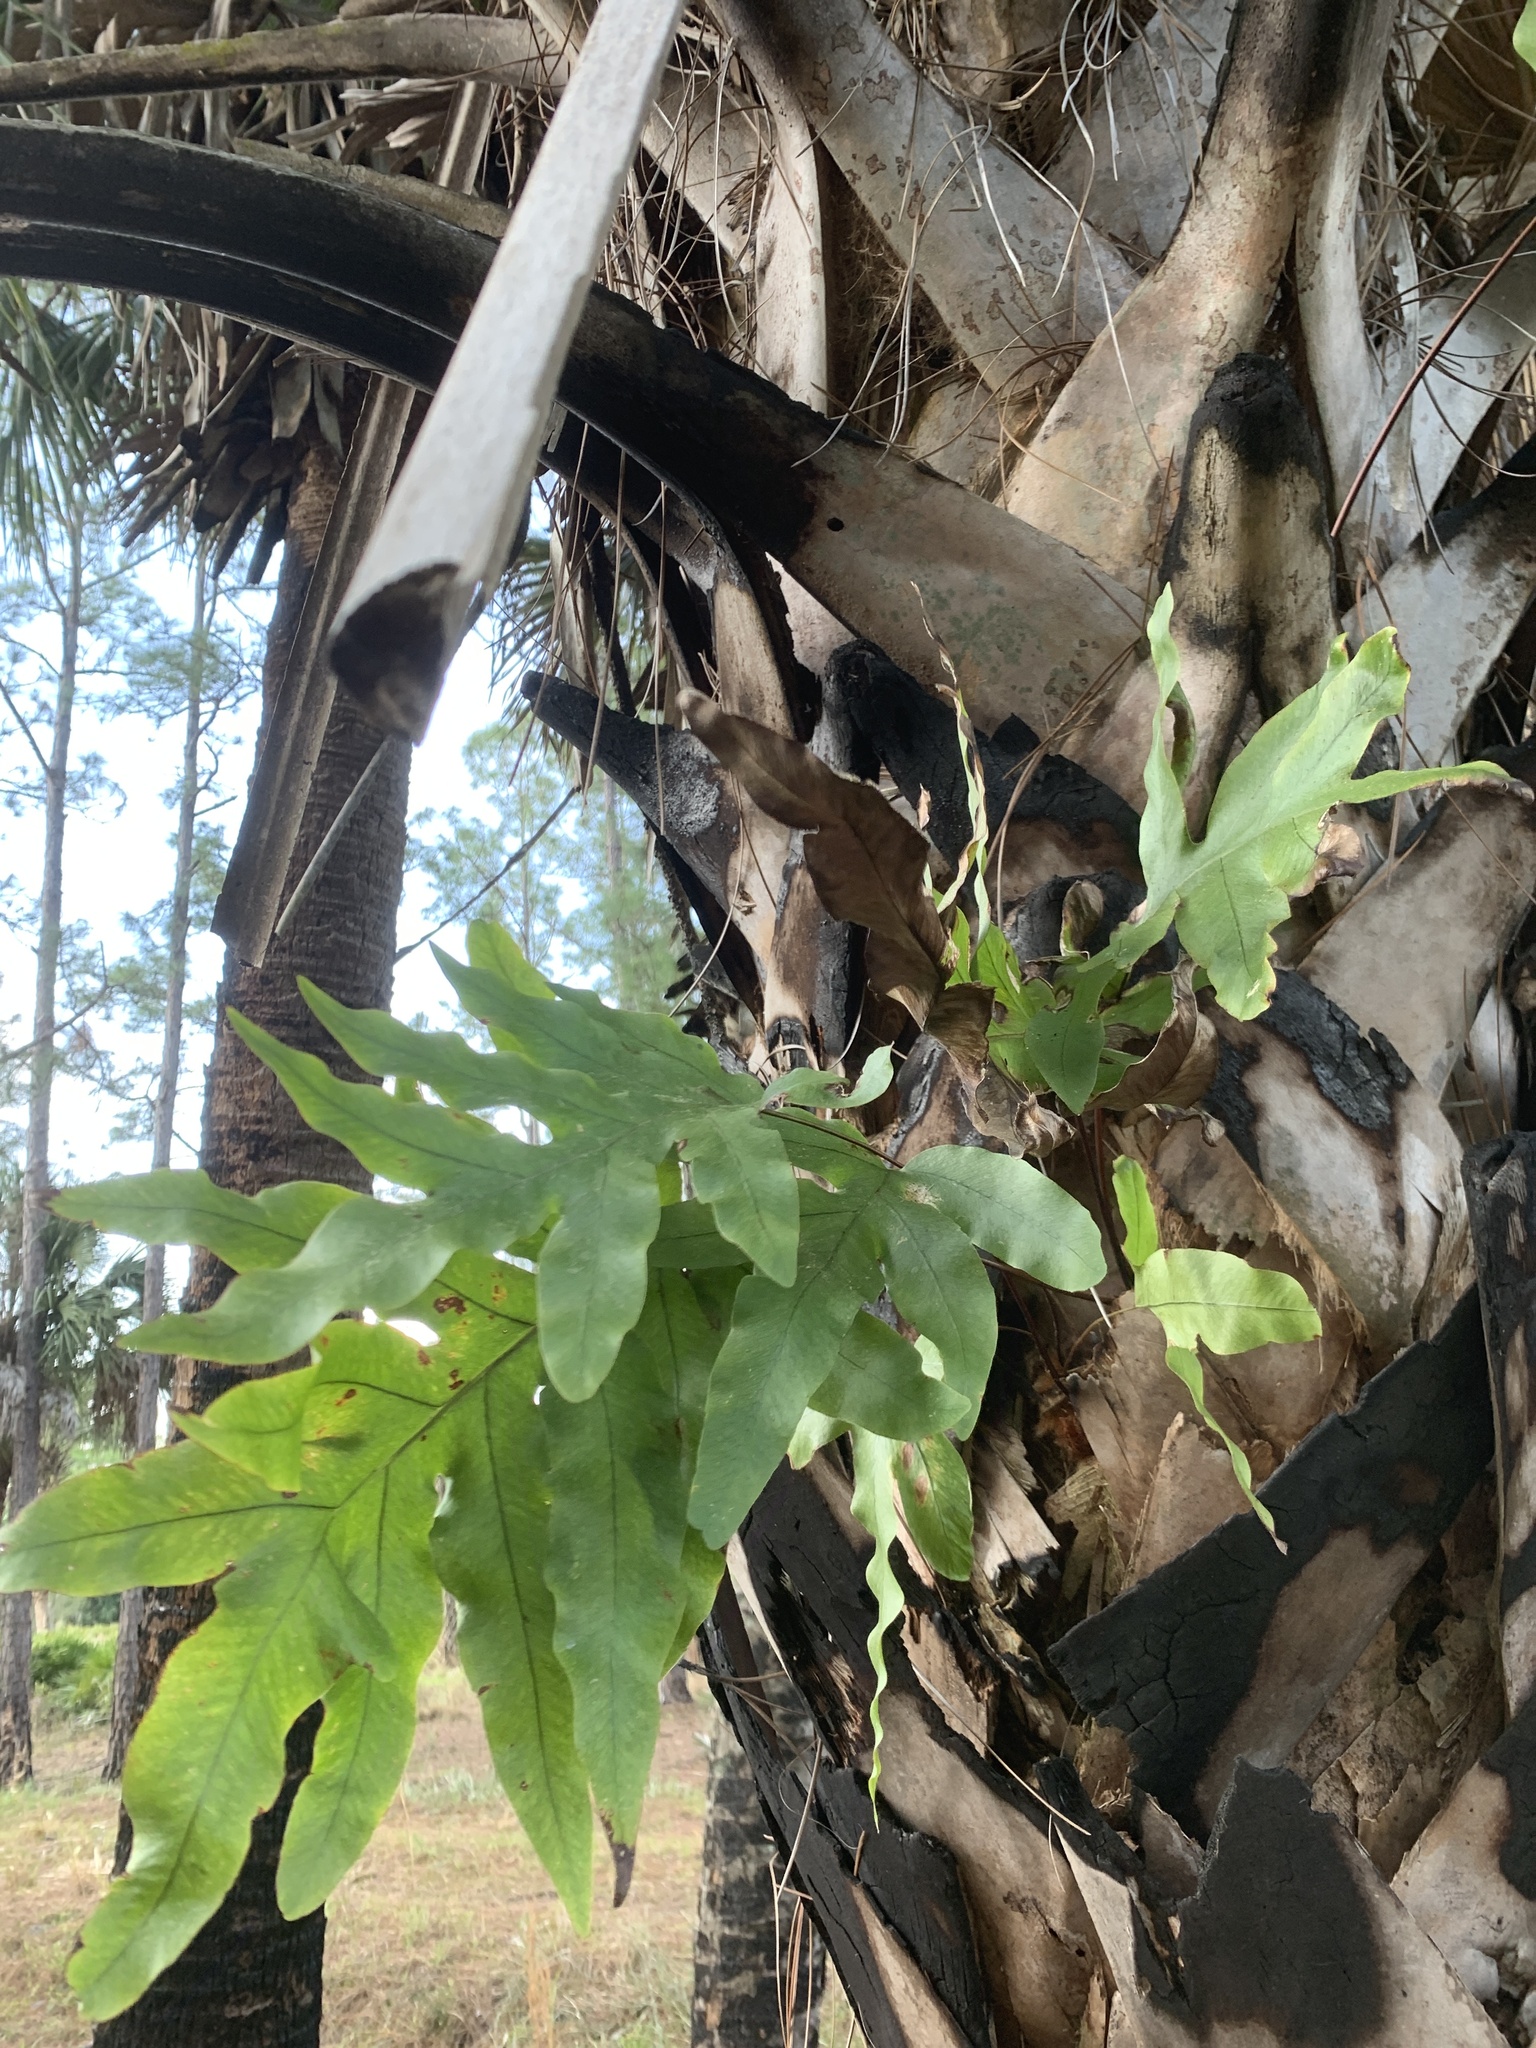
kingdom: Plantae
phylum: Tracheophyta
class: Polypodiopsida
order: Polypodiales
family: Polypodiaceae
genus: Phlebodium
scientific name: Phlebodium aureum
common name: Gold-foot fern
